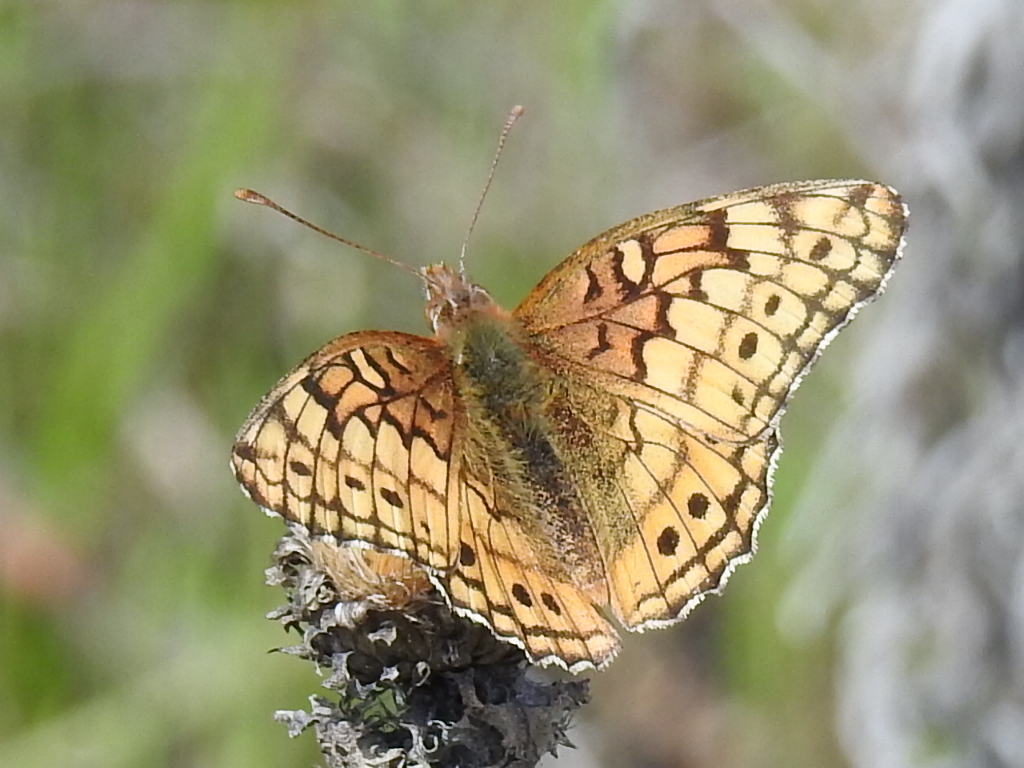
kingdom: Animalia
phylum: Arthropoda
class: Insecta
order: Lepidoptera
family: Nymphalidae
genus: Euptoieta
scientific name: Euptoieta claudia
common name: Variegated fritillary
